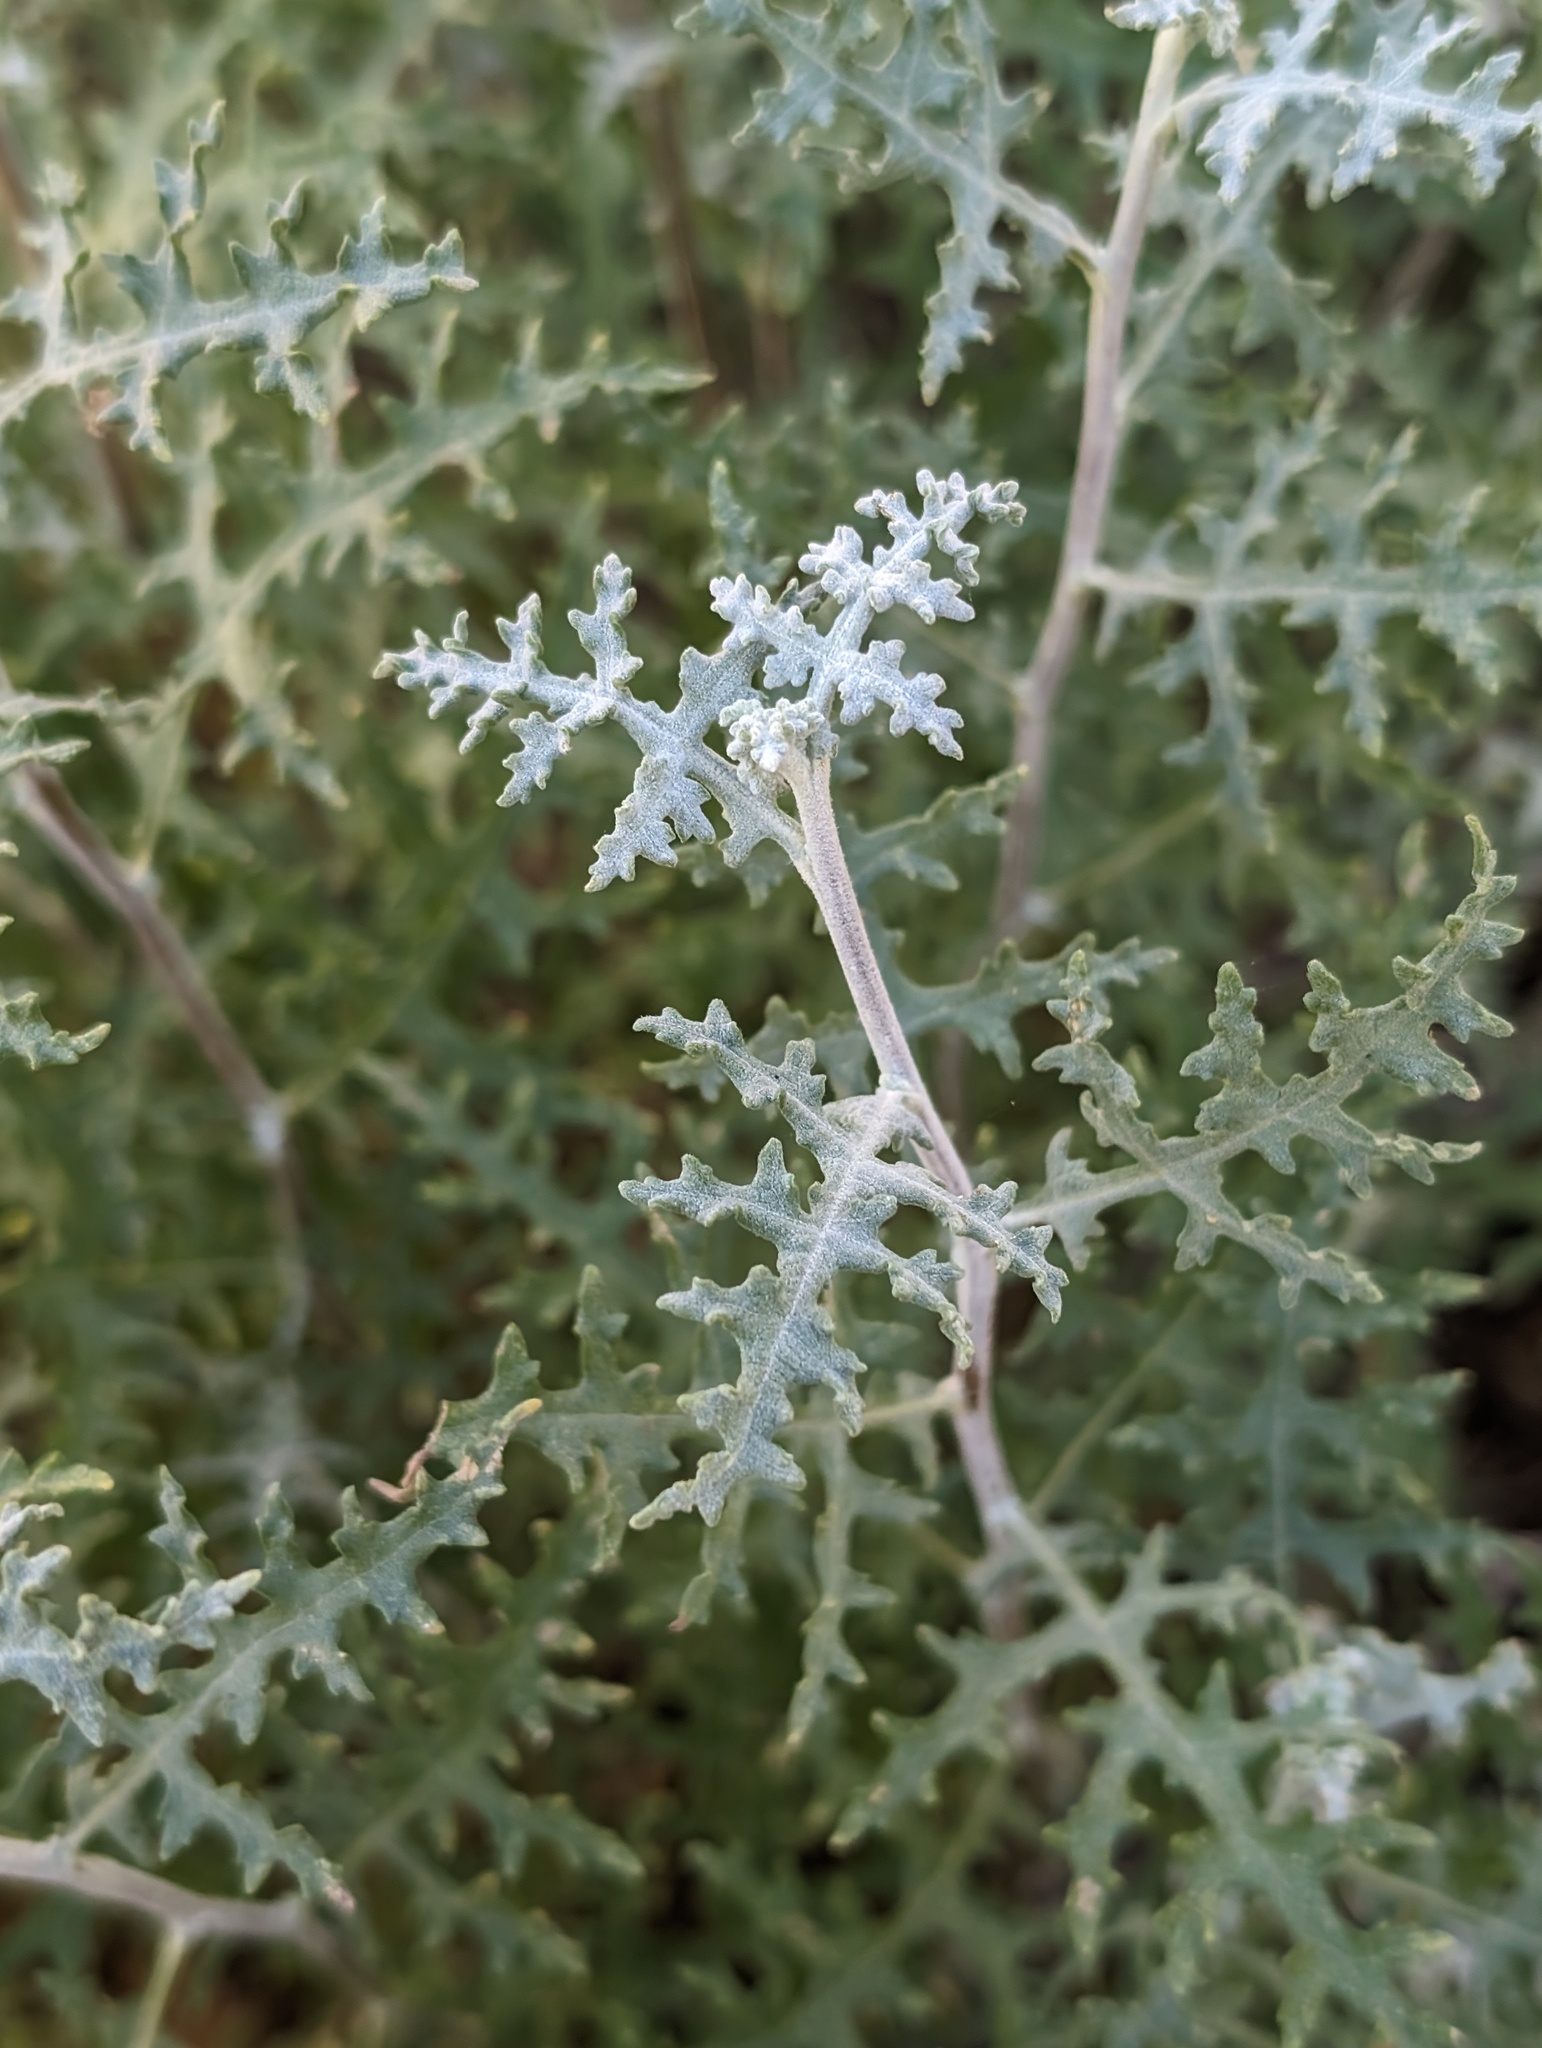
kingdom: Plantae
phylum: Tracheophyta
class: Magnoliopsida
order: Asterales
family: Asteraceae
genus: Ambrosia
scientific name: Ambrosia magdalenae
